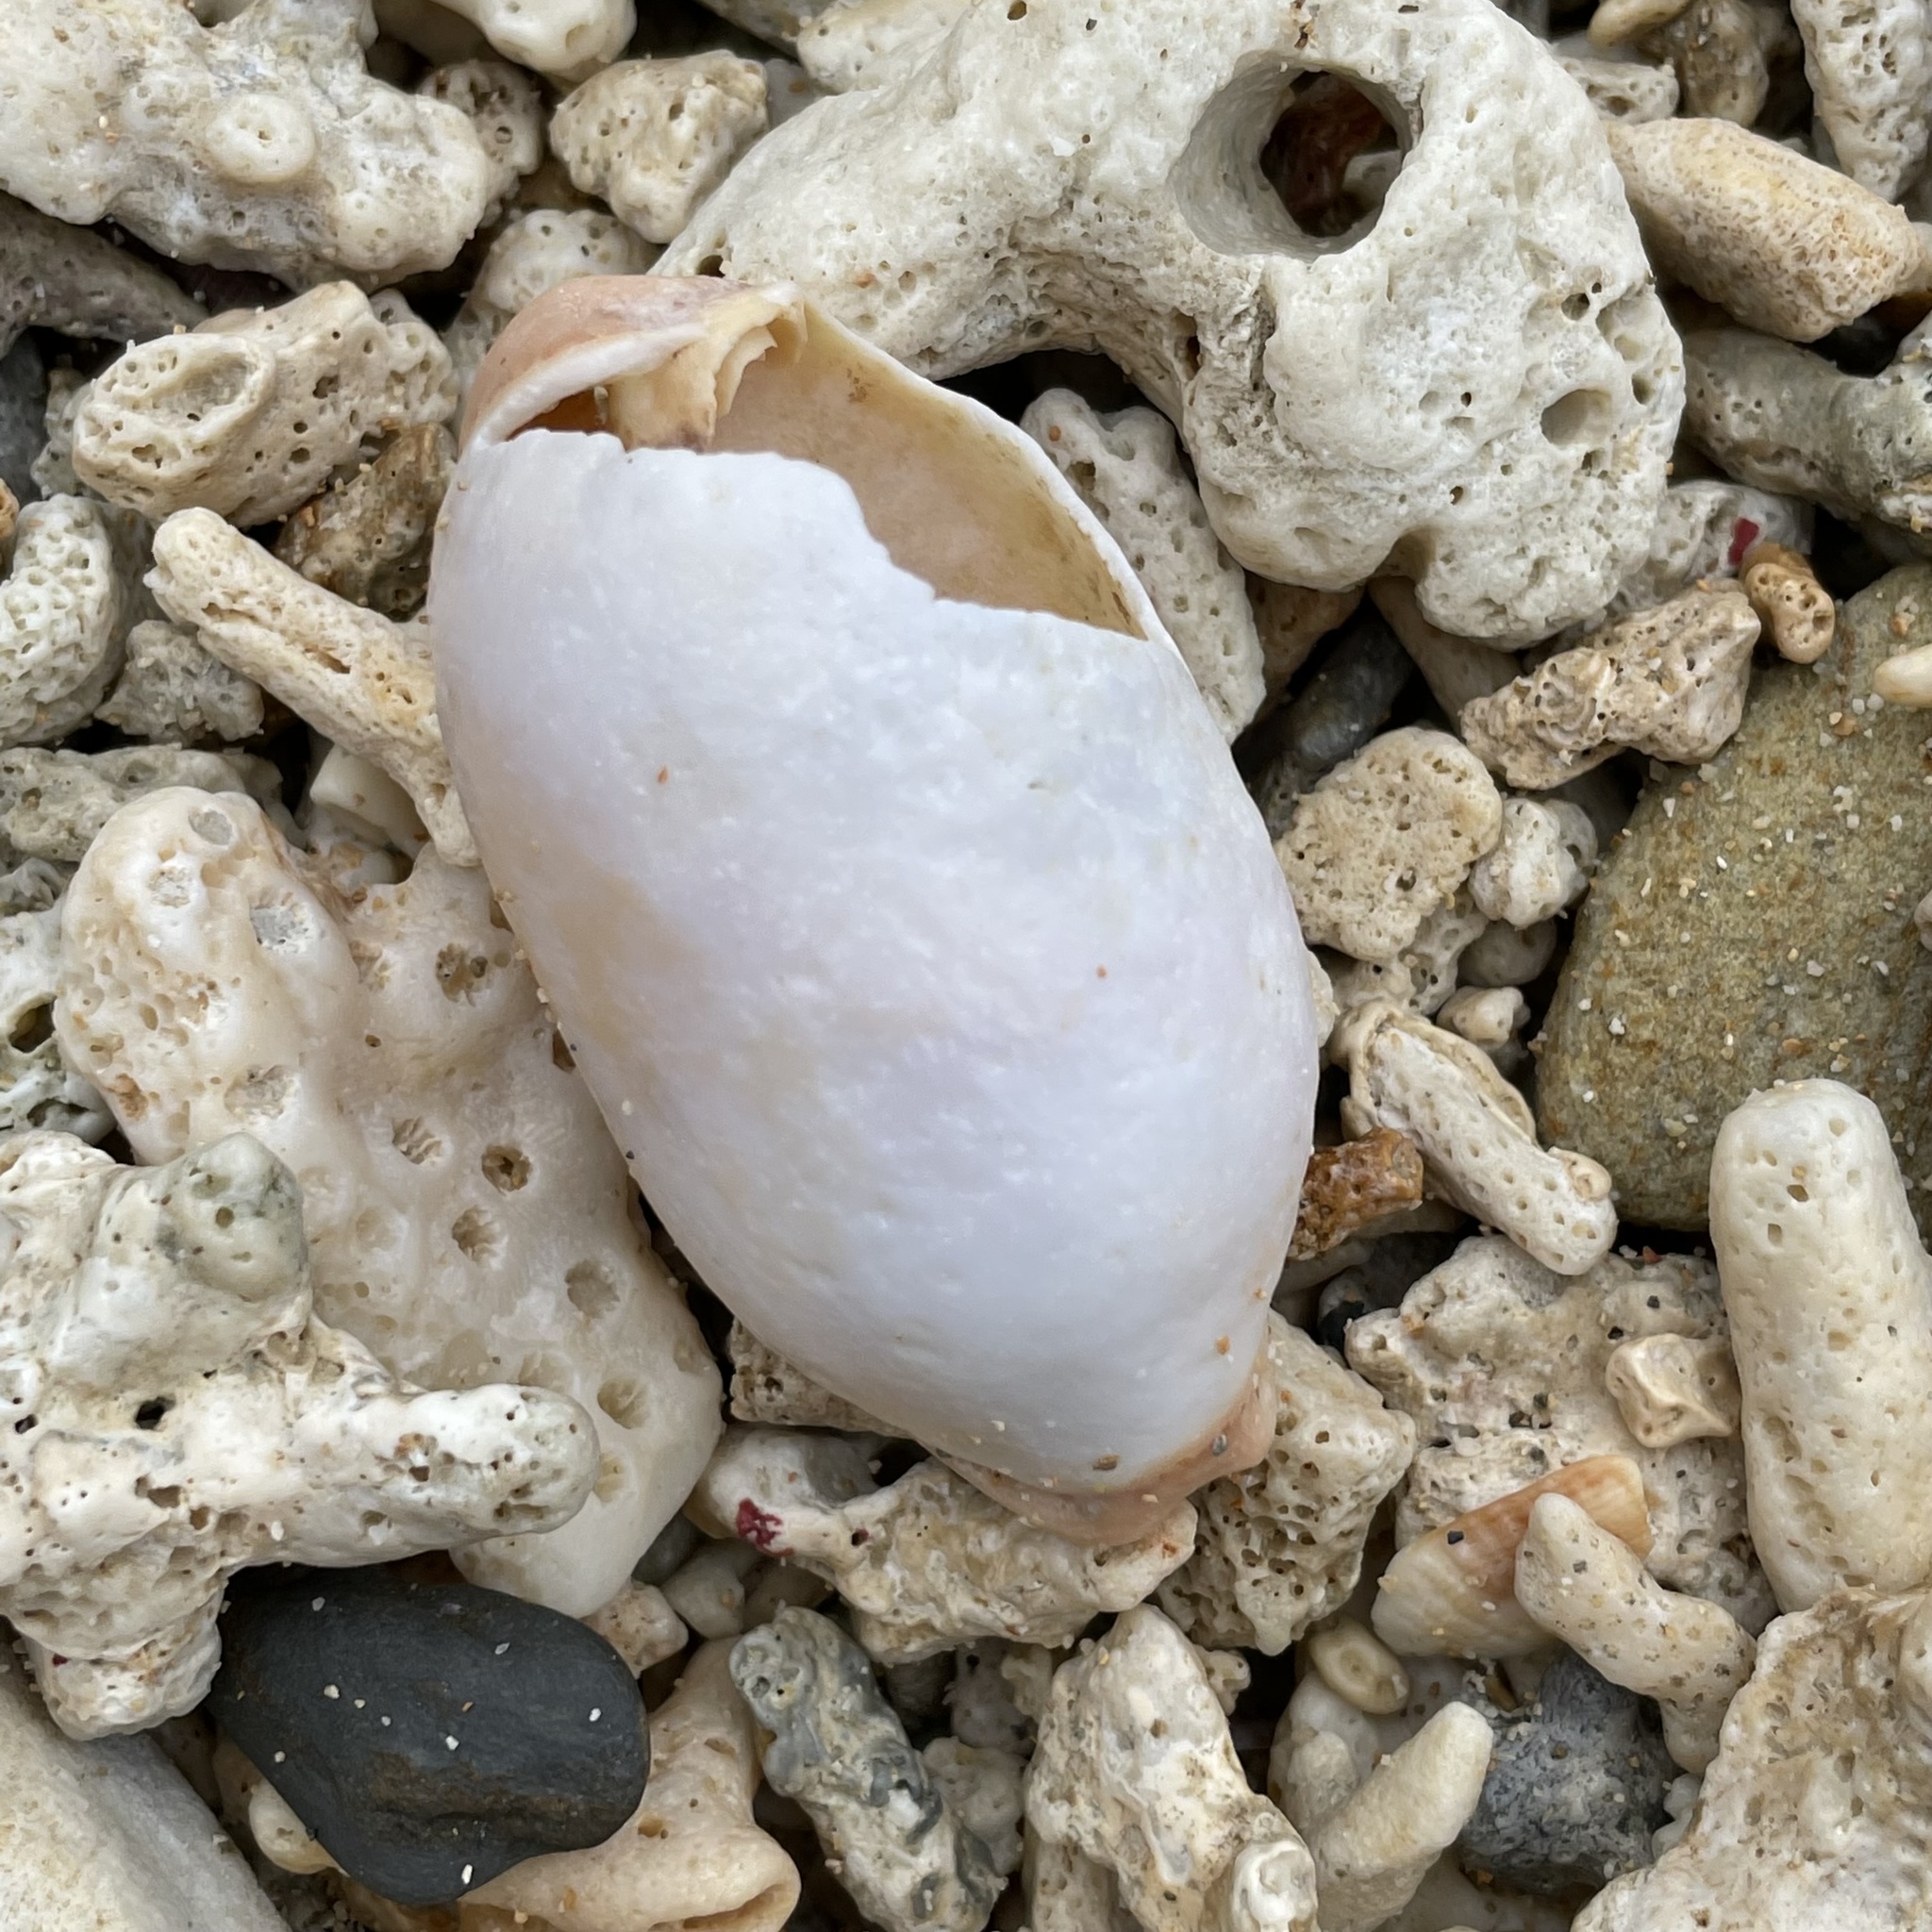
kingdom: Animalia
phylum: Mollusca
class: Gastropoda
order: Littorinimorpha
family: Cypraeidae
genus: Arestorides
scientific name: Arestorides argus
